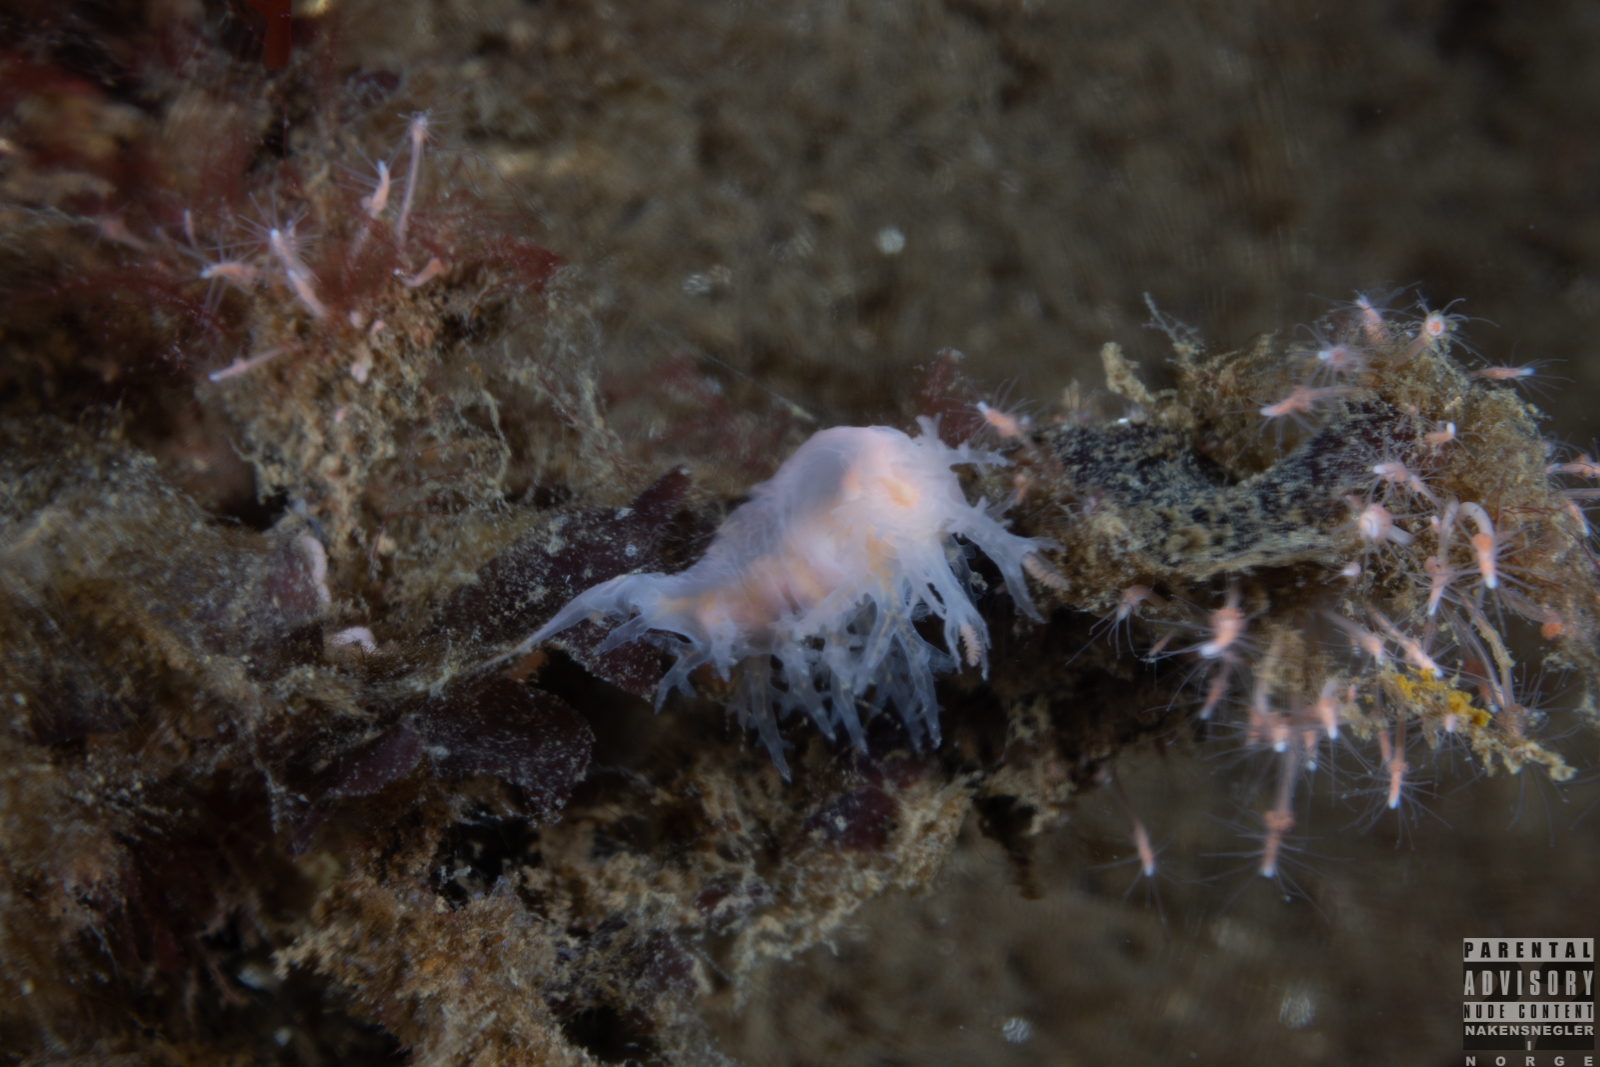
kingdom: Animalia
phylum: Mollusca
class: Gastropoda
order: Nudibranchia
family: Dendronotidae
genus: Dendronotus
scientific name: Dendronotus frondosus
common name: Bushy-backed nudibranch
